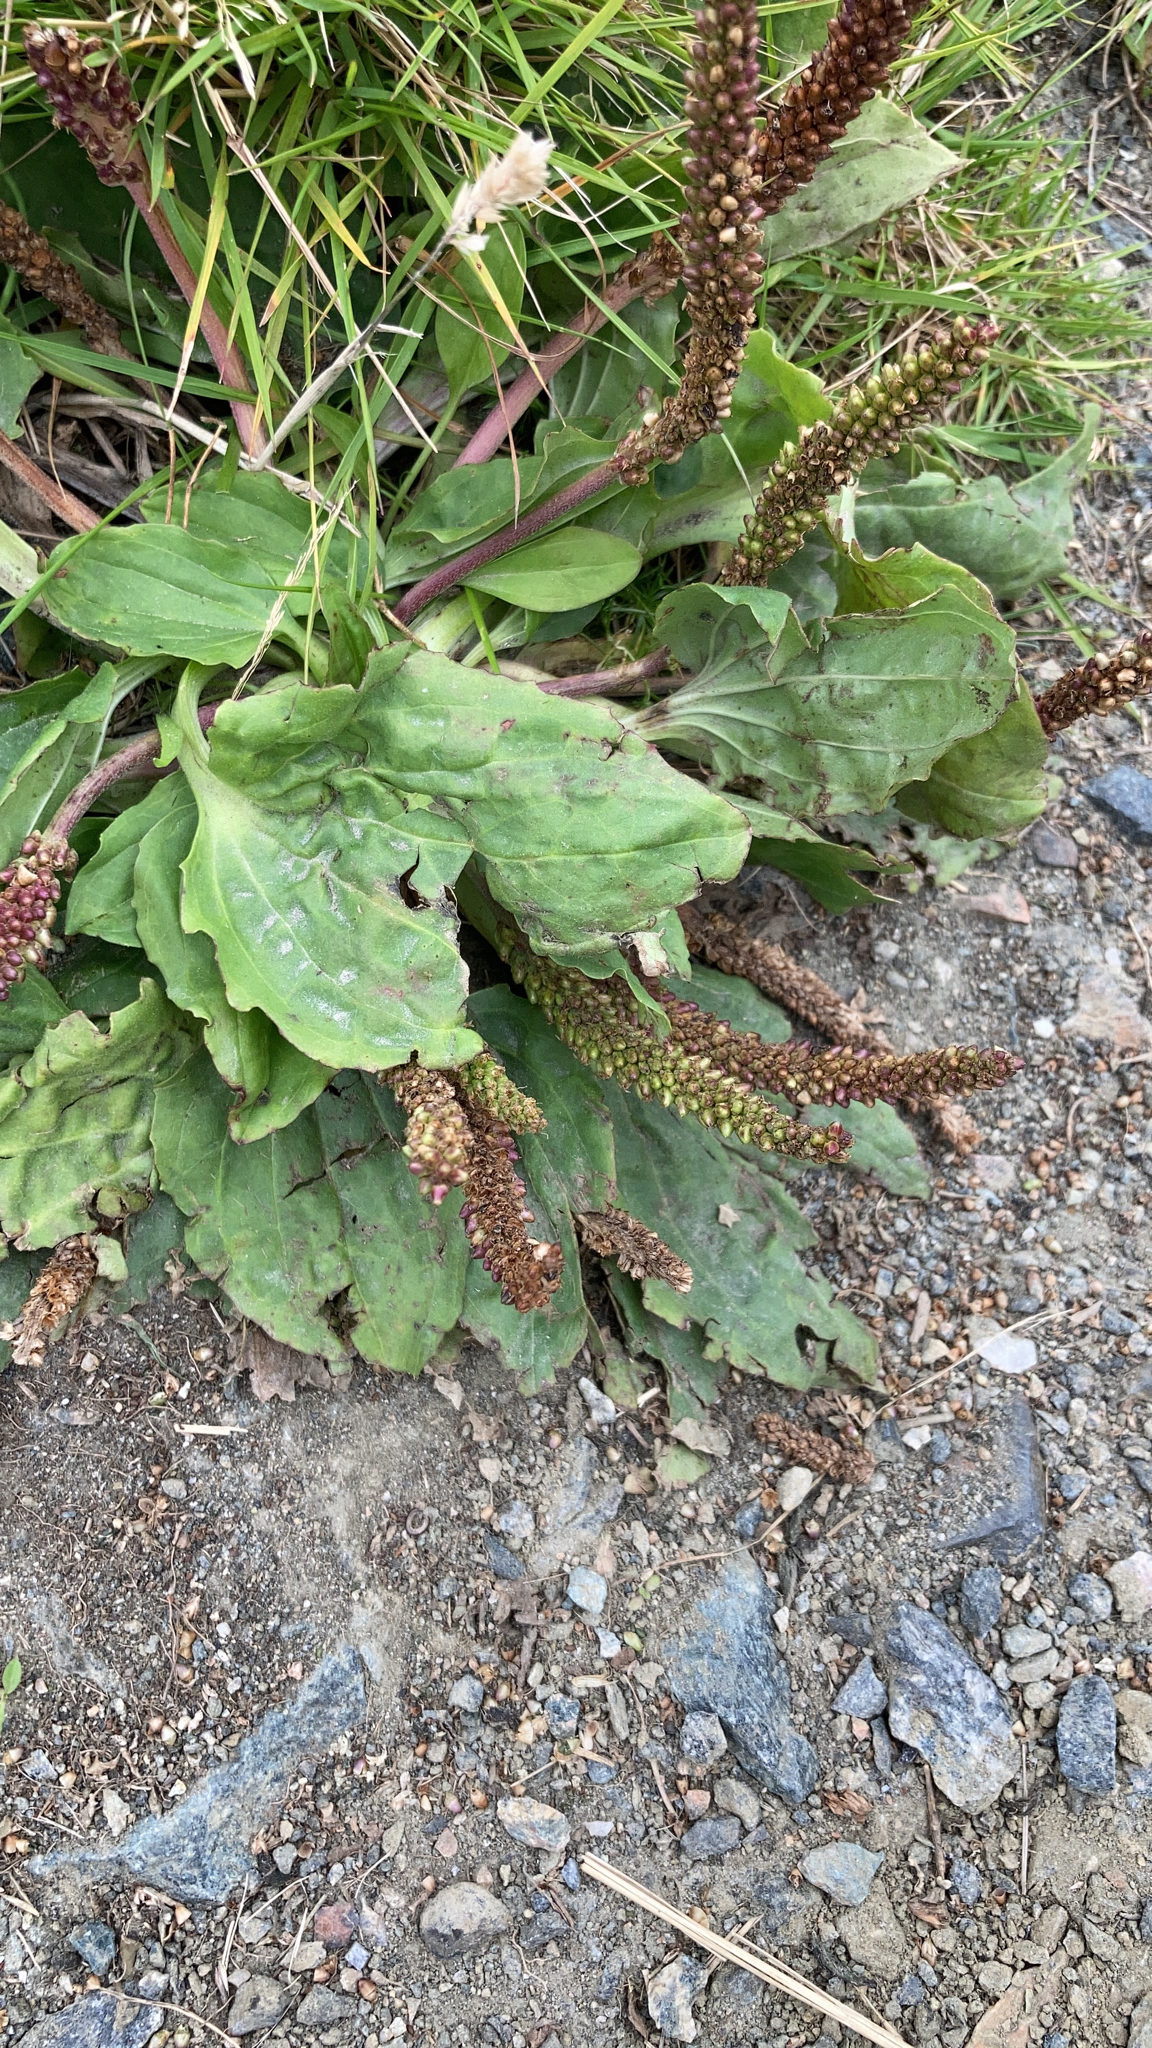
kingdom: Plantae
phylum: Tracheophyta
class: Magnoliopsida
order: Lamiales
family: Plantaginaceae
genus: Plantago
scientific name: Plantago major
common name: Common plantain
